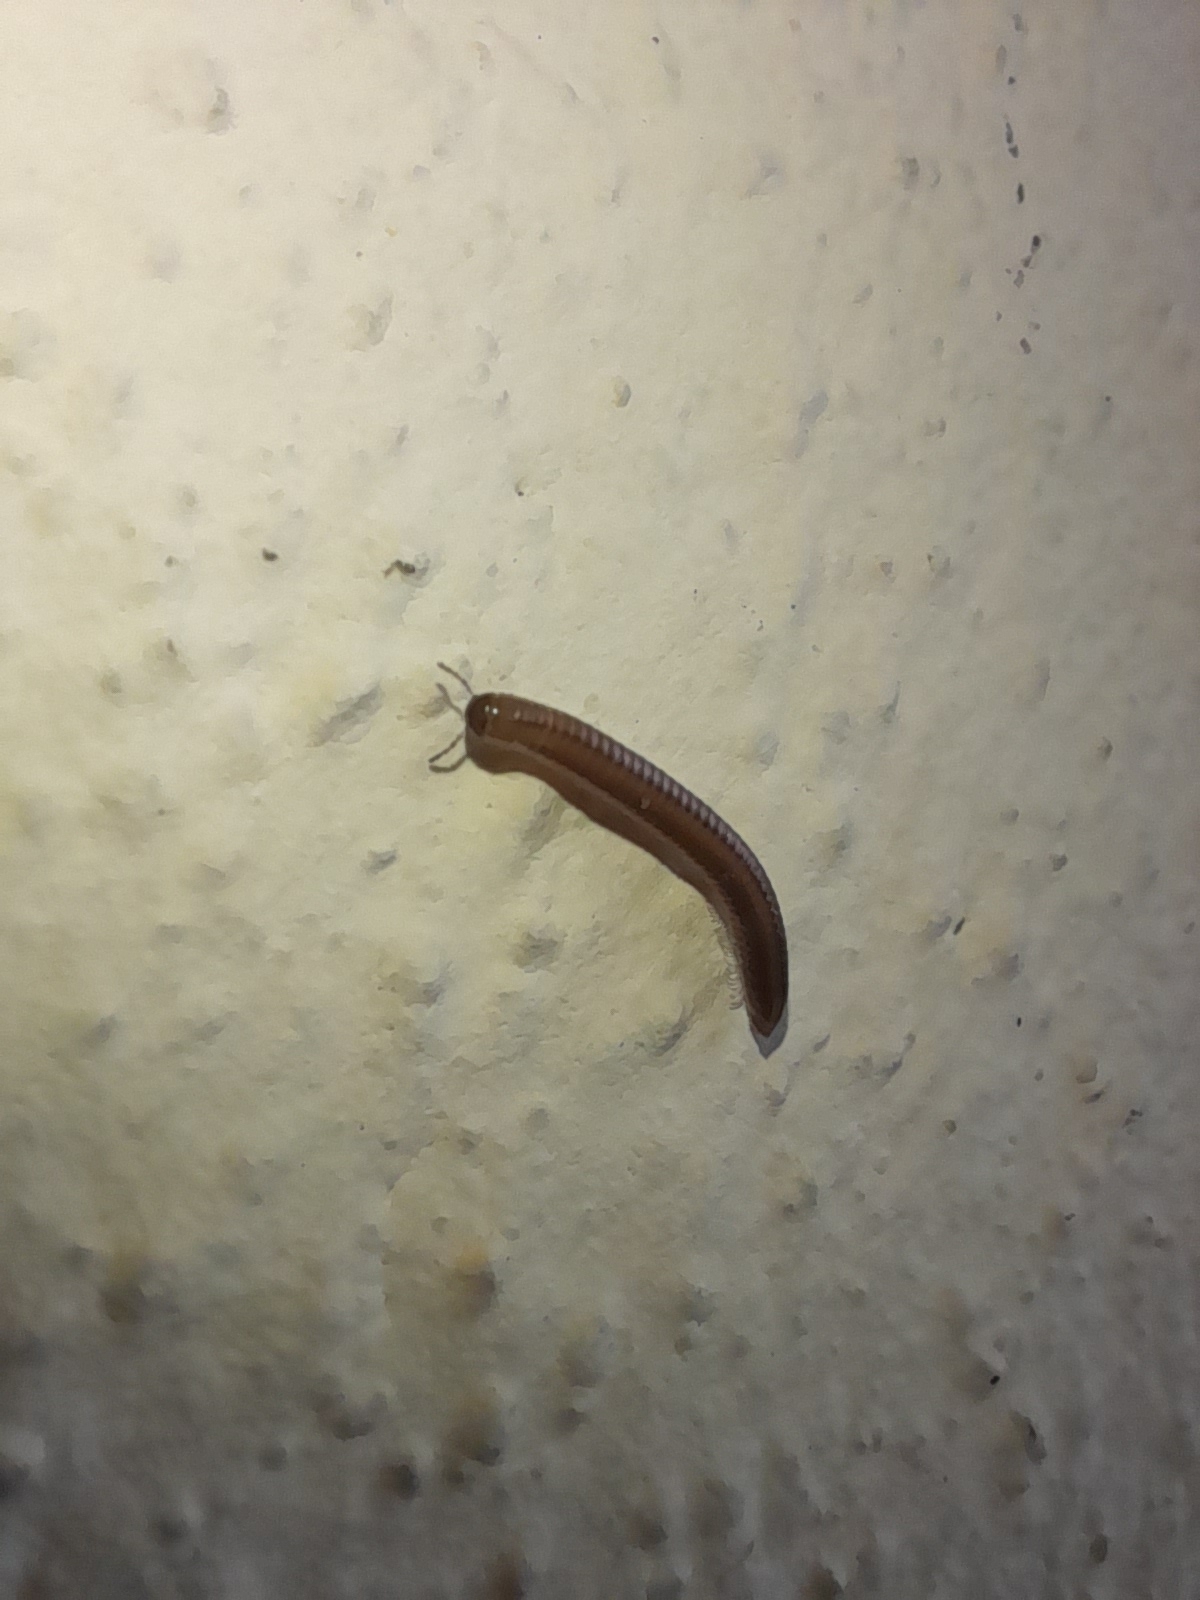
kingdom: Animalia
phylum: Arthropoda
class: Diplopoda
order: Julida
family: Julidae
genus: Ommatoiulus
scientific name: Ommatoiulus sabulosus
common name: Striped millipede
